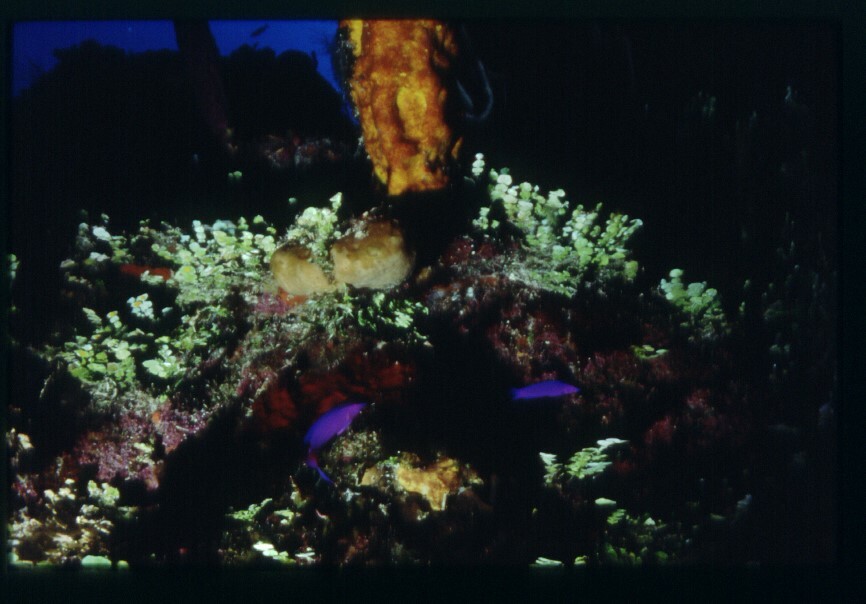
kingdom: Animalia
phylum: Chordata
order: Perciformes
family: Grammatidae
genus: Gramma
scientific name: Gramma melacara
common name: Blackcap basslet
